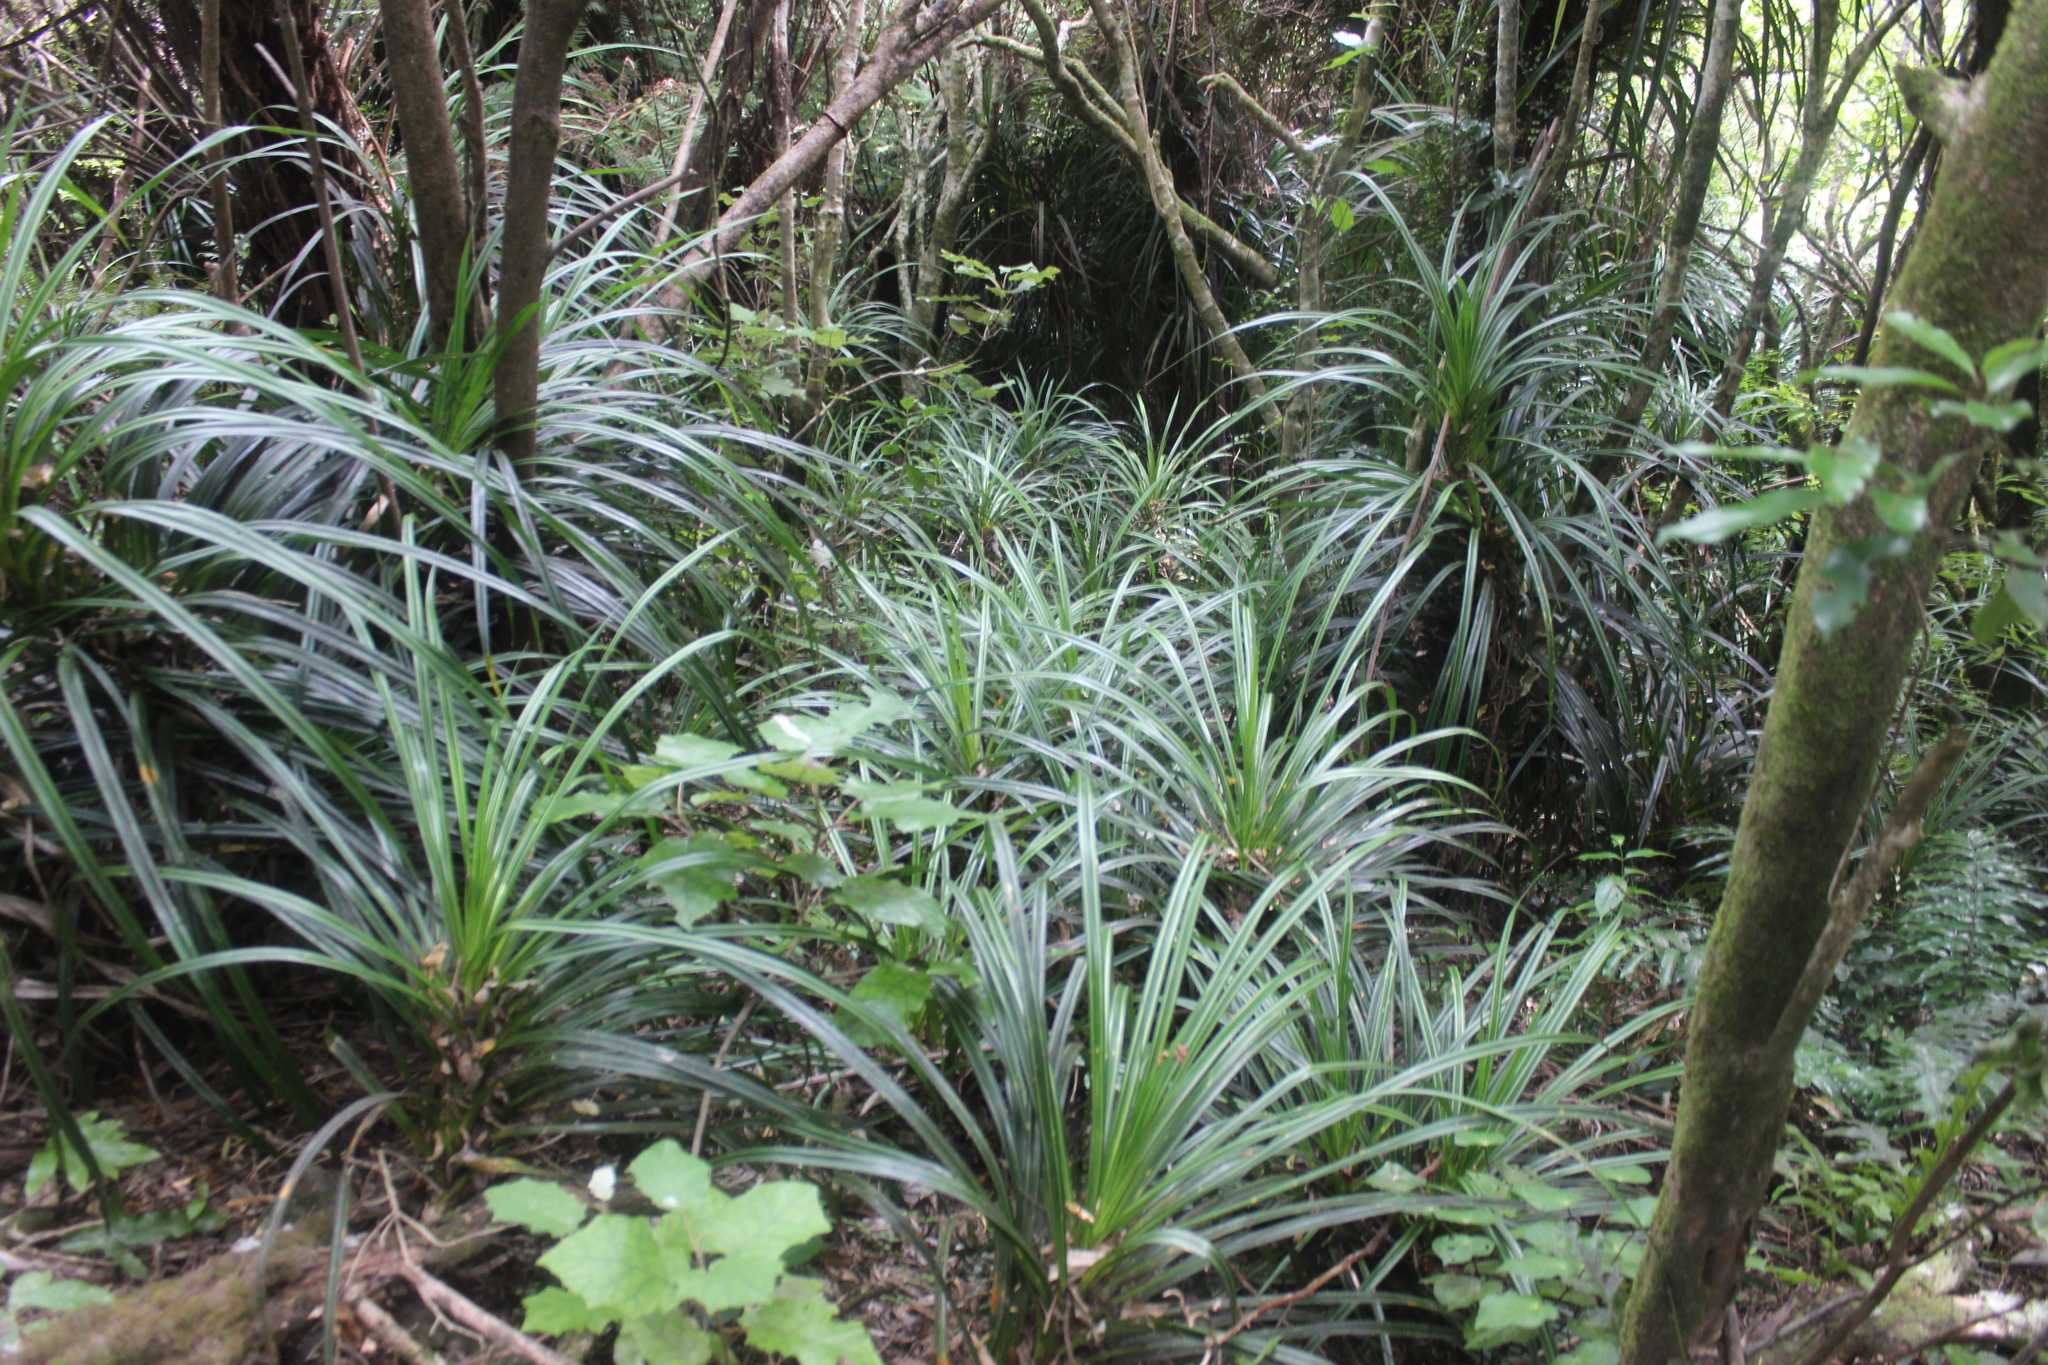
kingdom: Plantae
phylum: Tracheophyta
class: Liliopsida
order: Pandanales
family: Pandanaceae
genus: Freycinetia
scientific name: Freycinetia banksii
